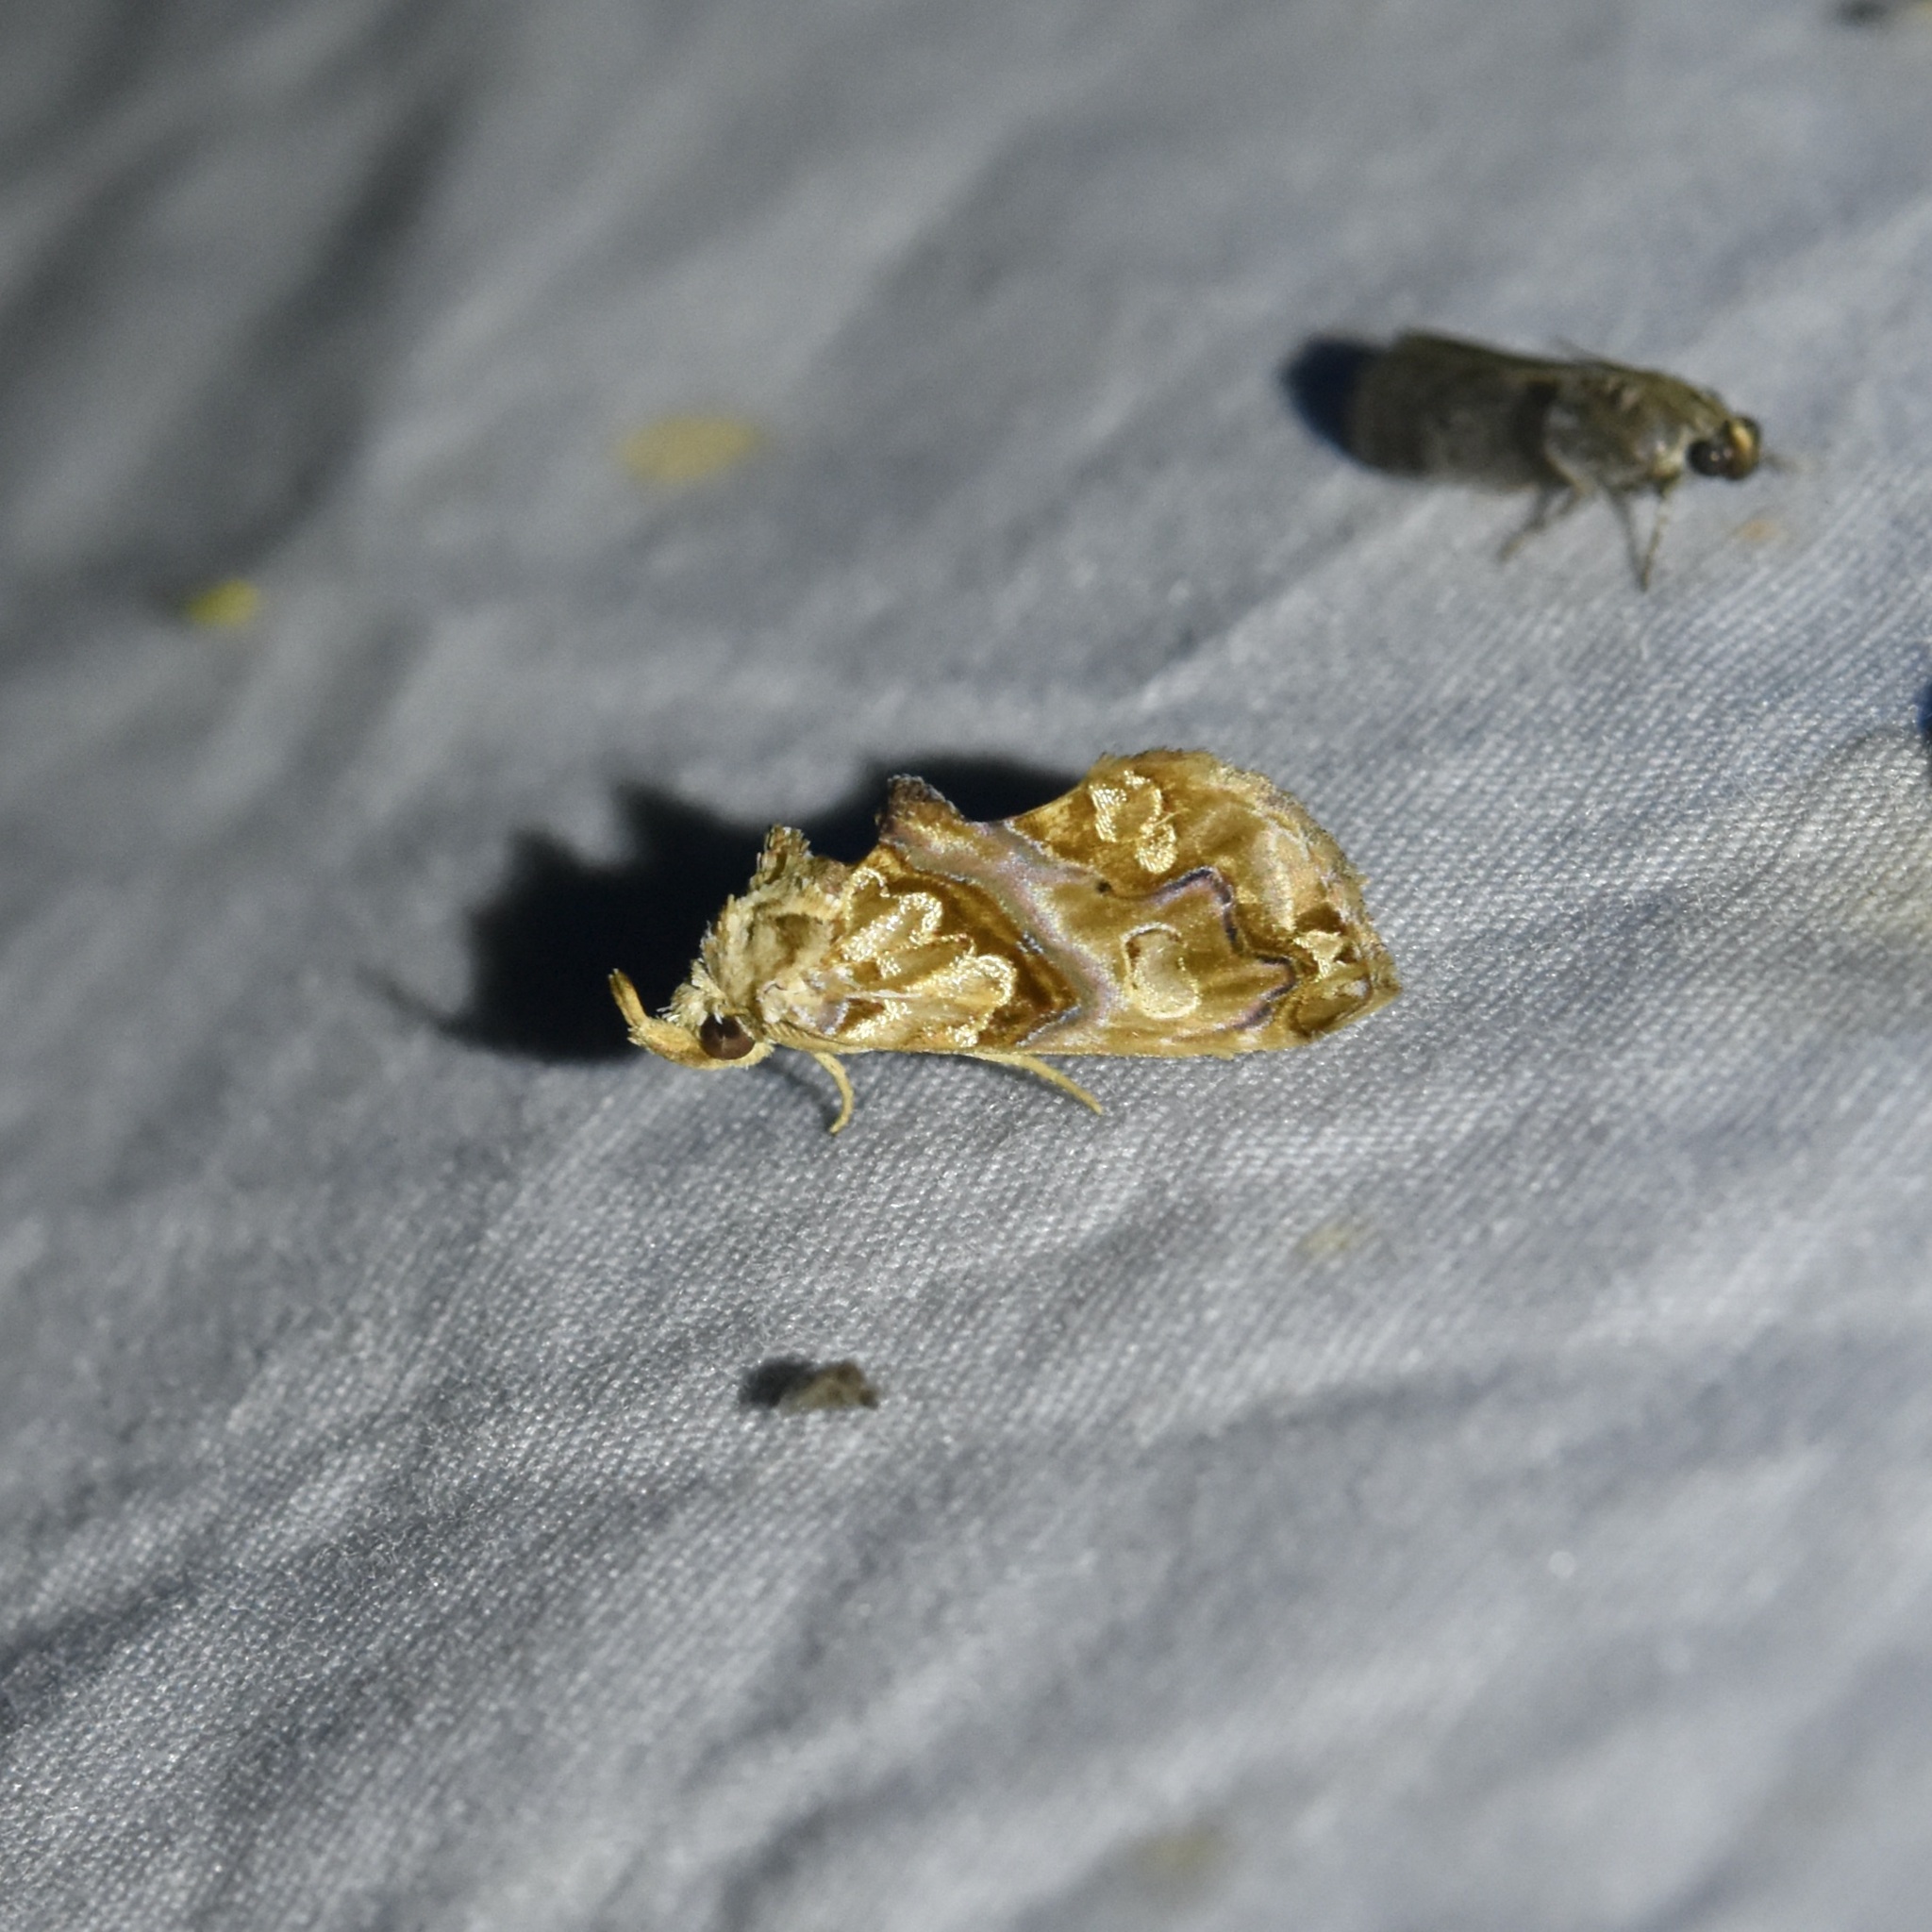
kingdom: Animalia
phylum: Arthropoda
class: Insecta
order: Lepidoptera
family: Erebidae
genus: Plusiodonta
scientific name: Plusiodonta compressipalpis
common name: Moonseed moth
